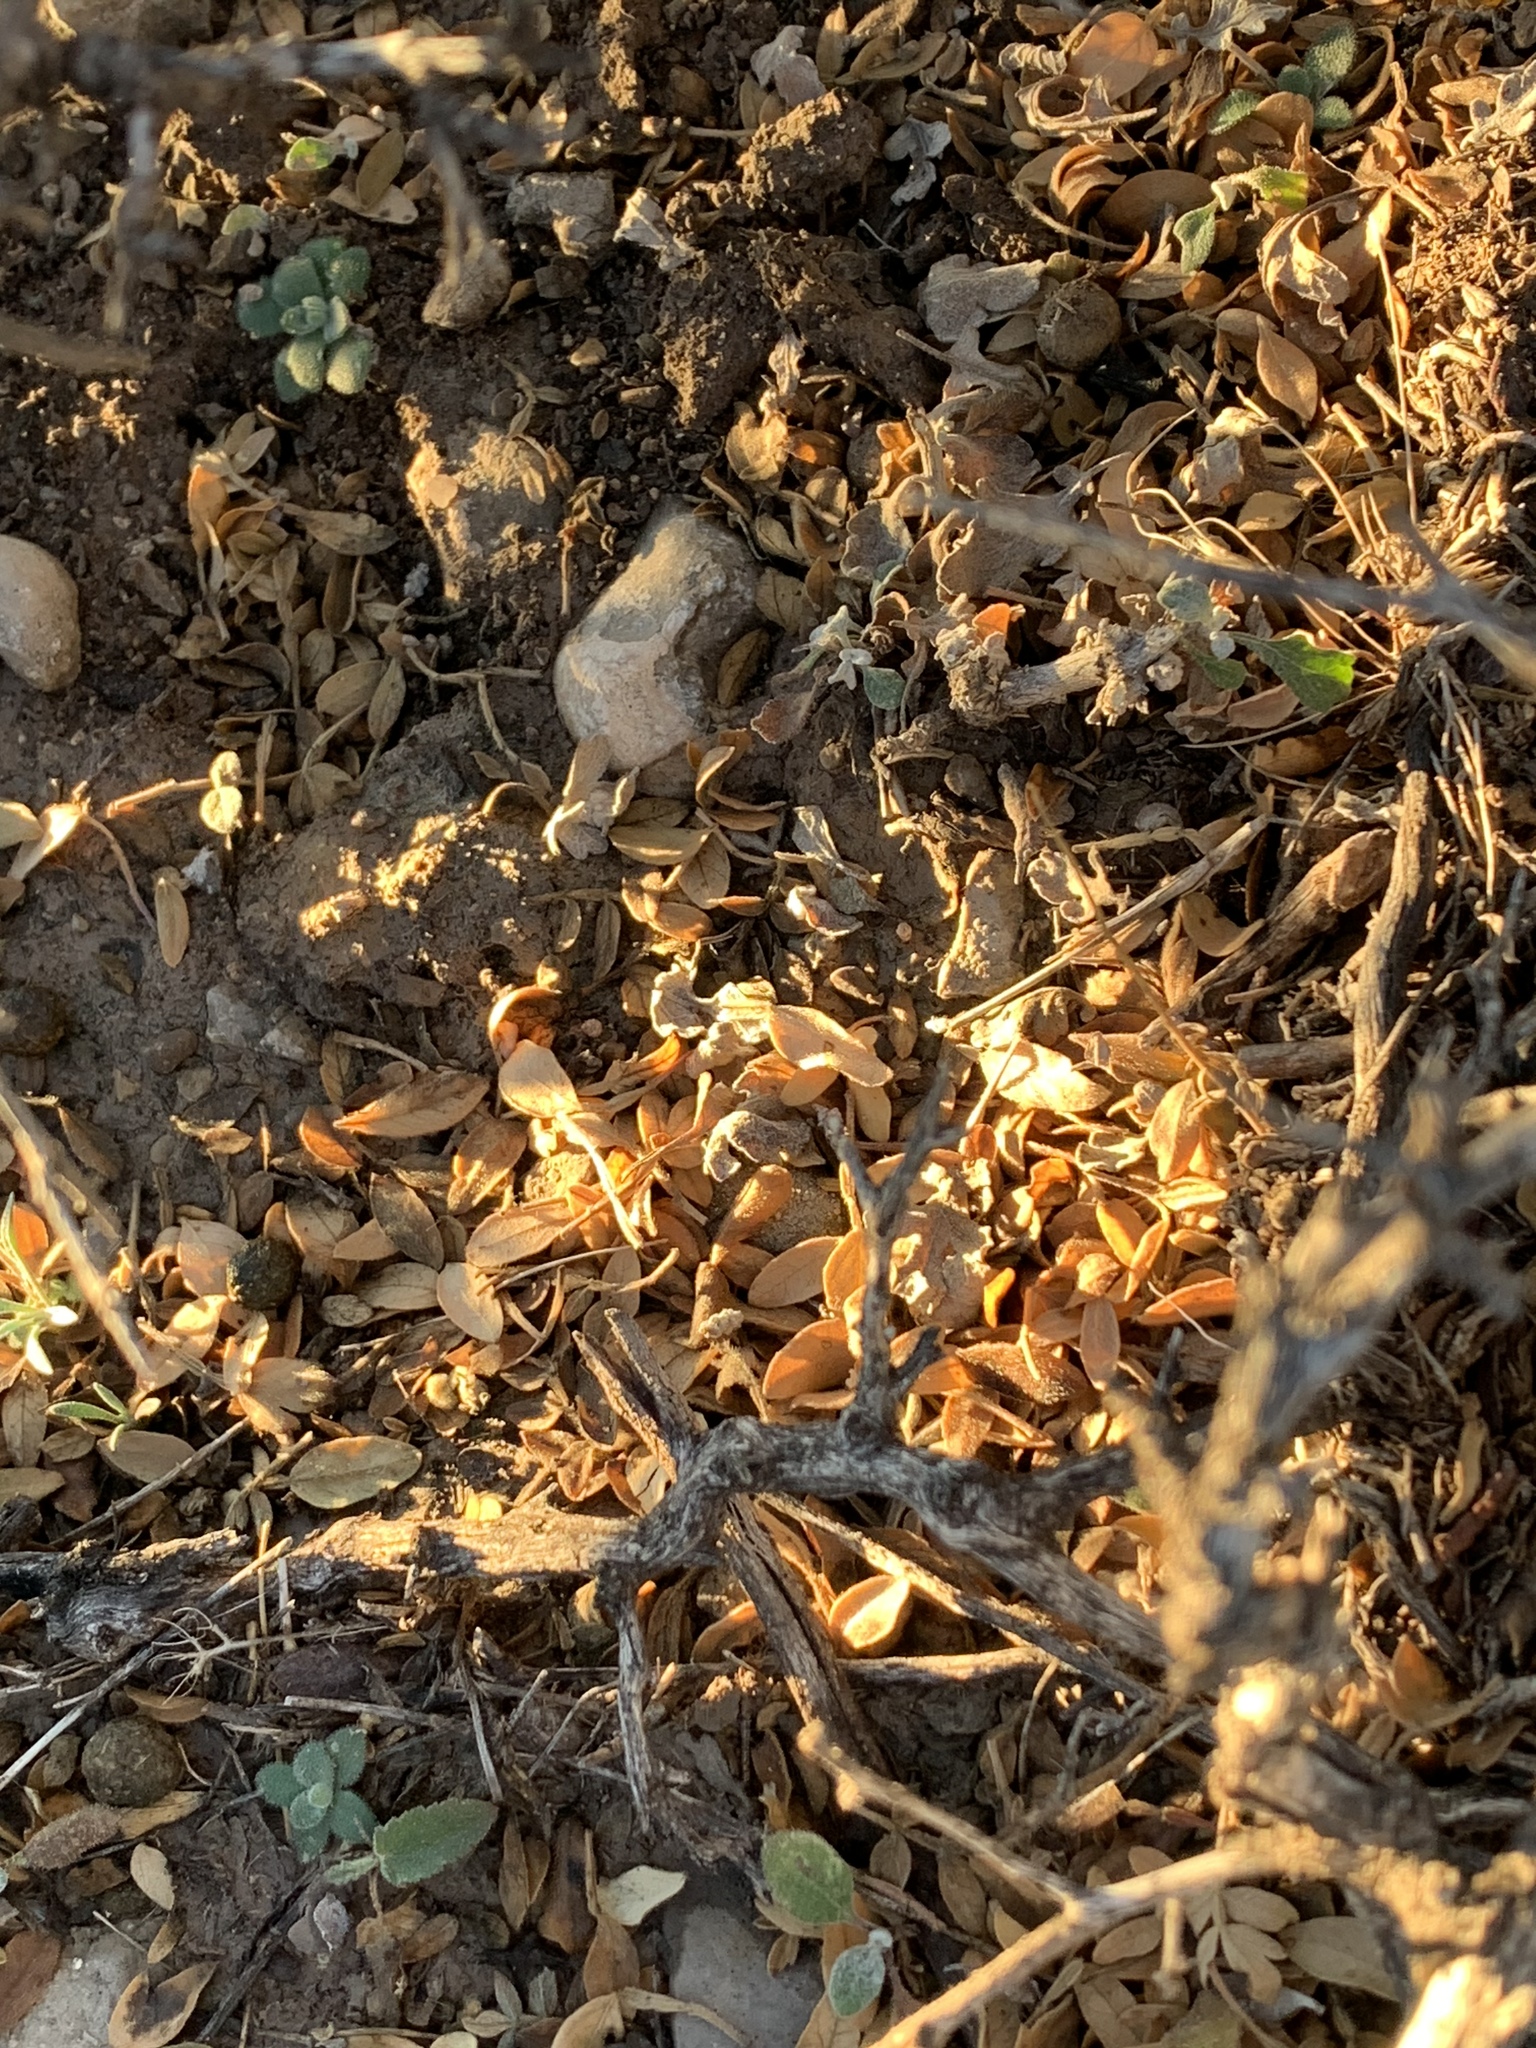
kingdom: Plantae
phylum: Tracheophyta
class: Magnoliopsida
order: Sapindales
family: Anacardiaceae
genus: Rhus
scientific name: Rhus microphylla
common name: Desert sumac
